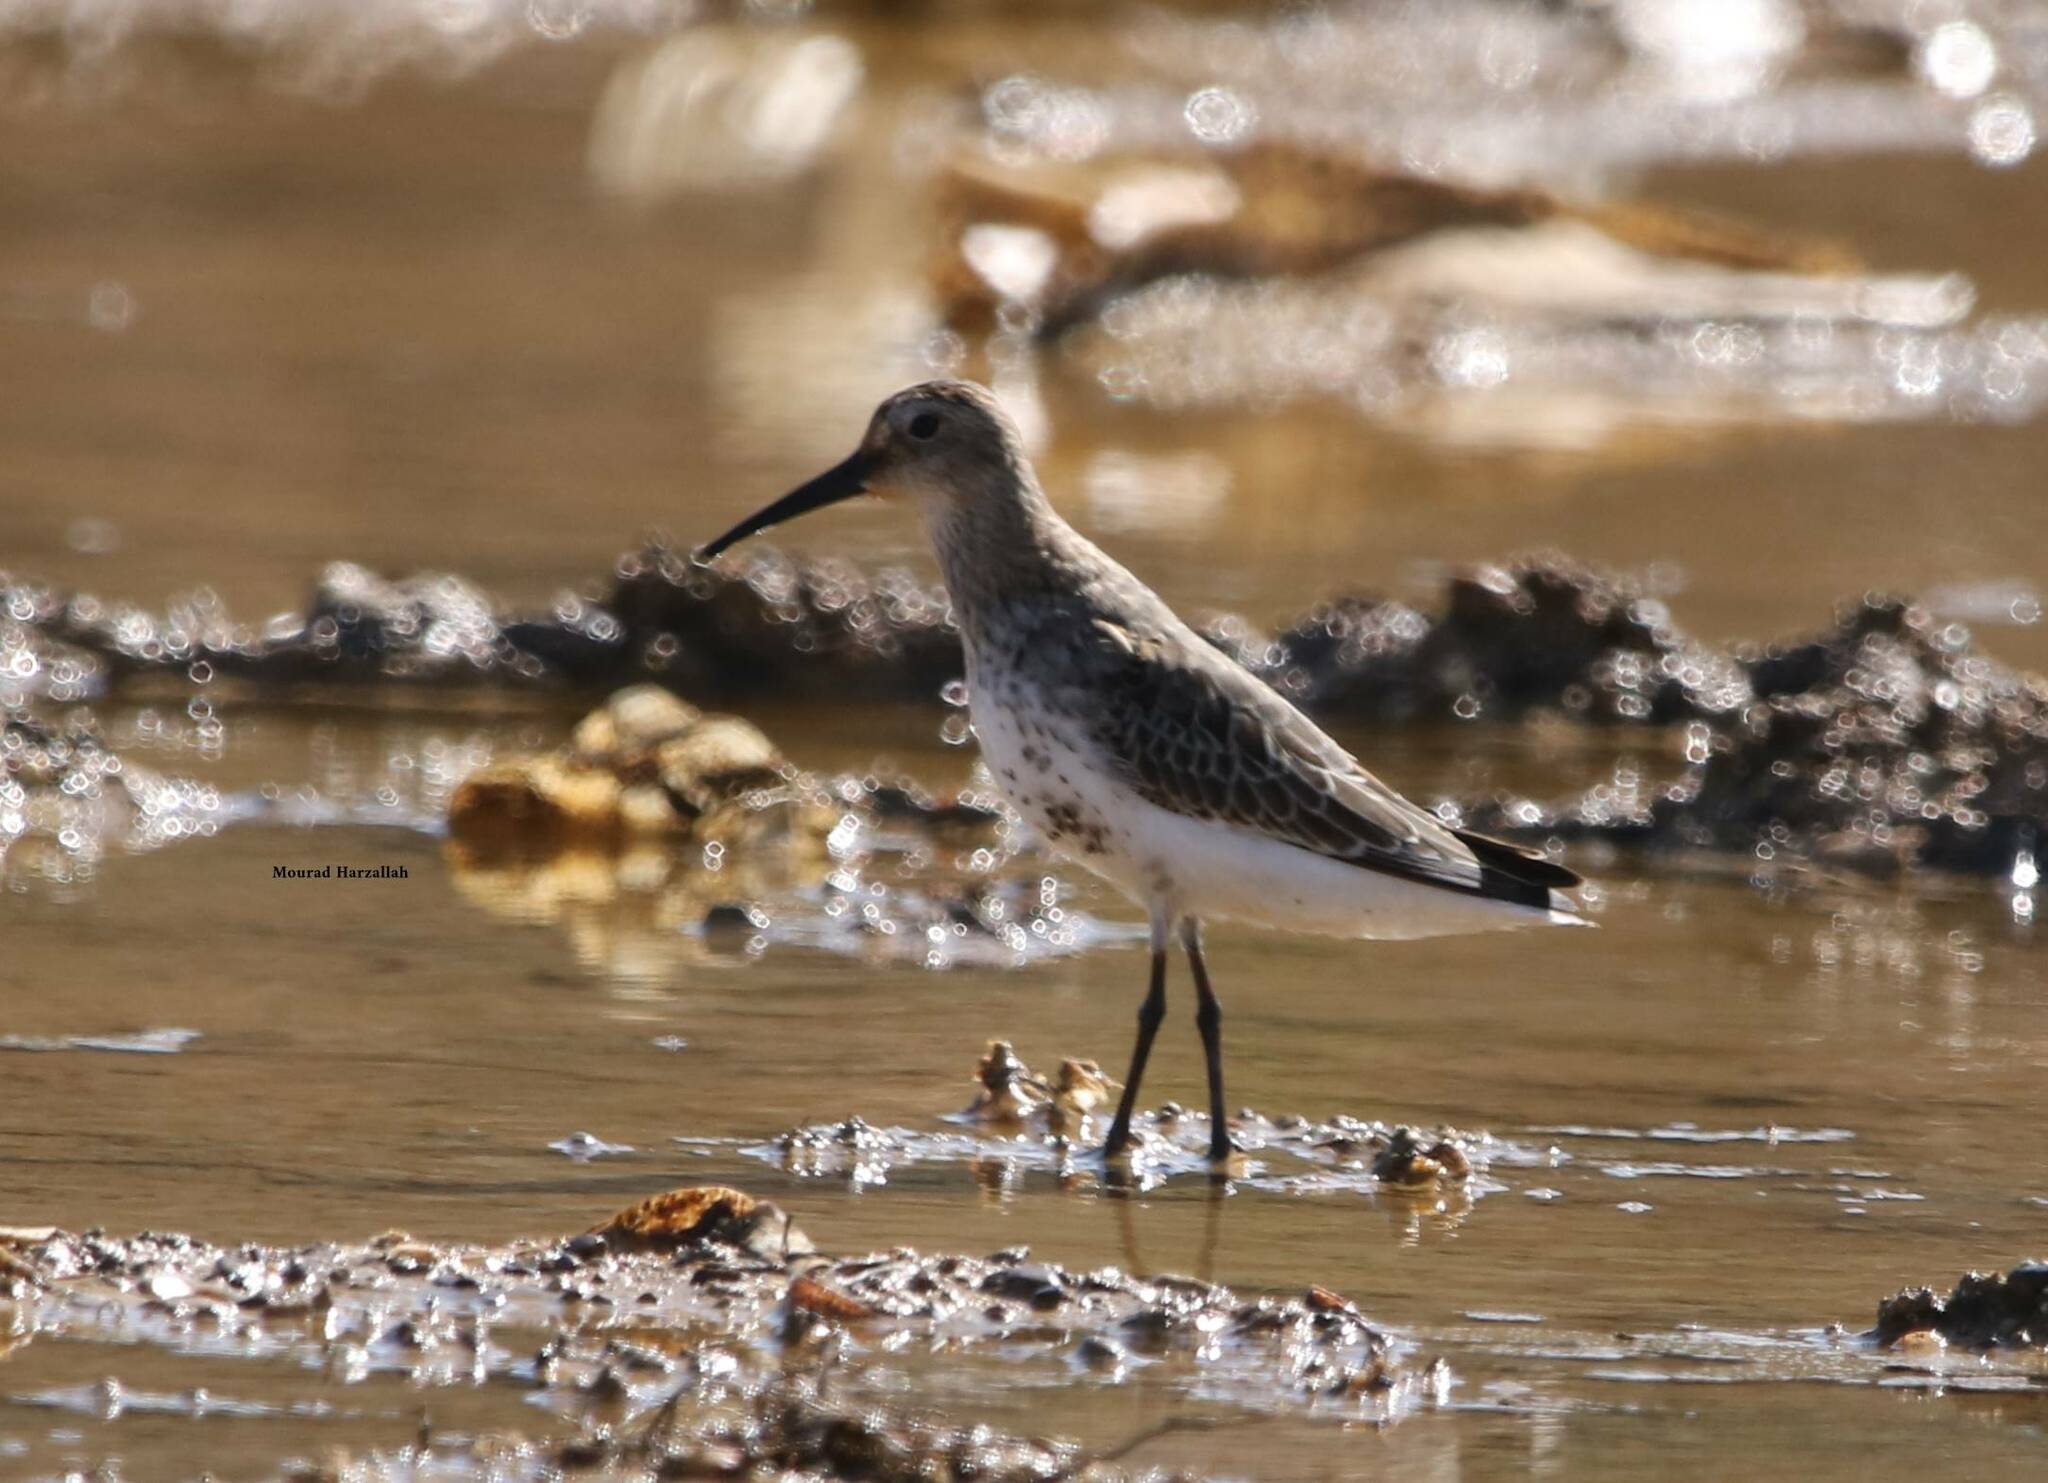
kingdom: Animalia
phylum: Chordata
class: Aves
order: Charadriiformes
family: Scolopacidae
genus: Calidris
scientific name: Calidris alpina
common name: Dunlin
